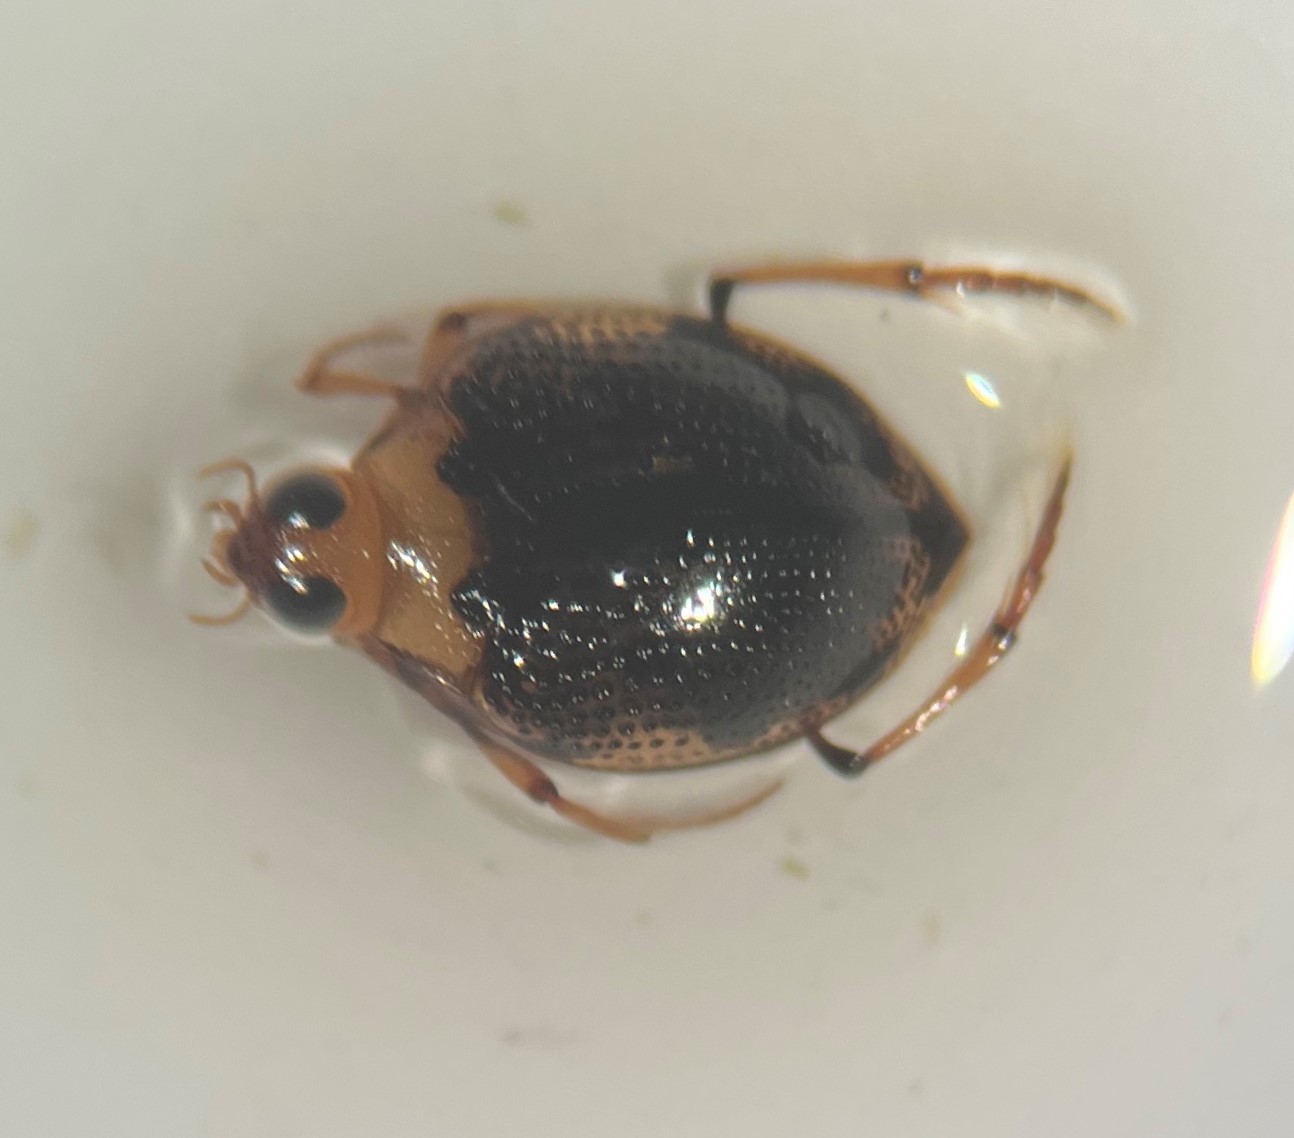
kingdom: Animalia
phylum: Arthropoda
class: Insecta
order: Coleoptera
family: Haliplidae
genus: Peltodytes
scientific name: Peltodytes dunavani
